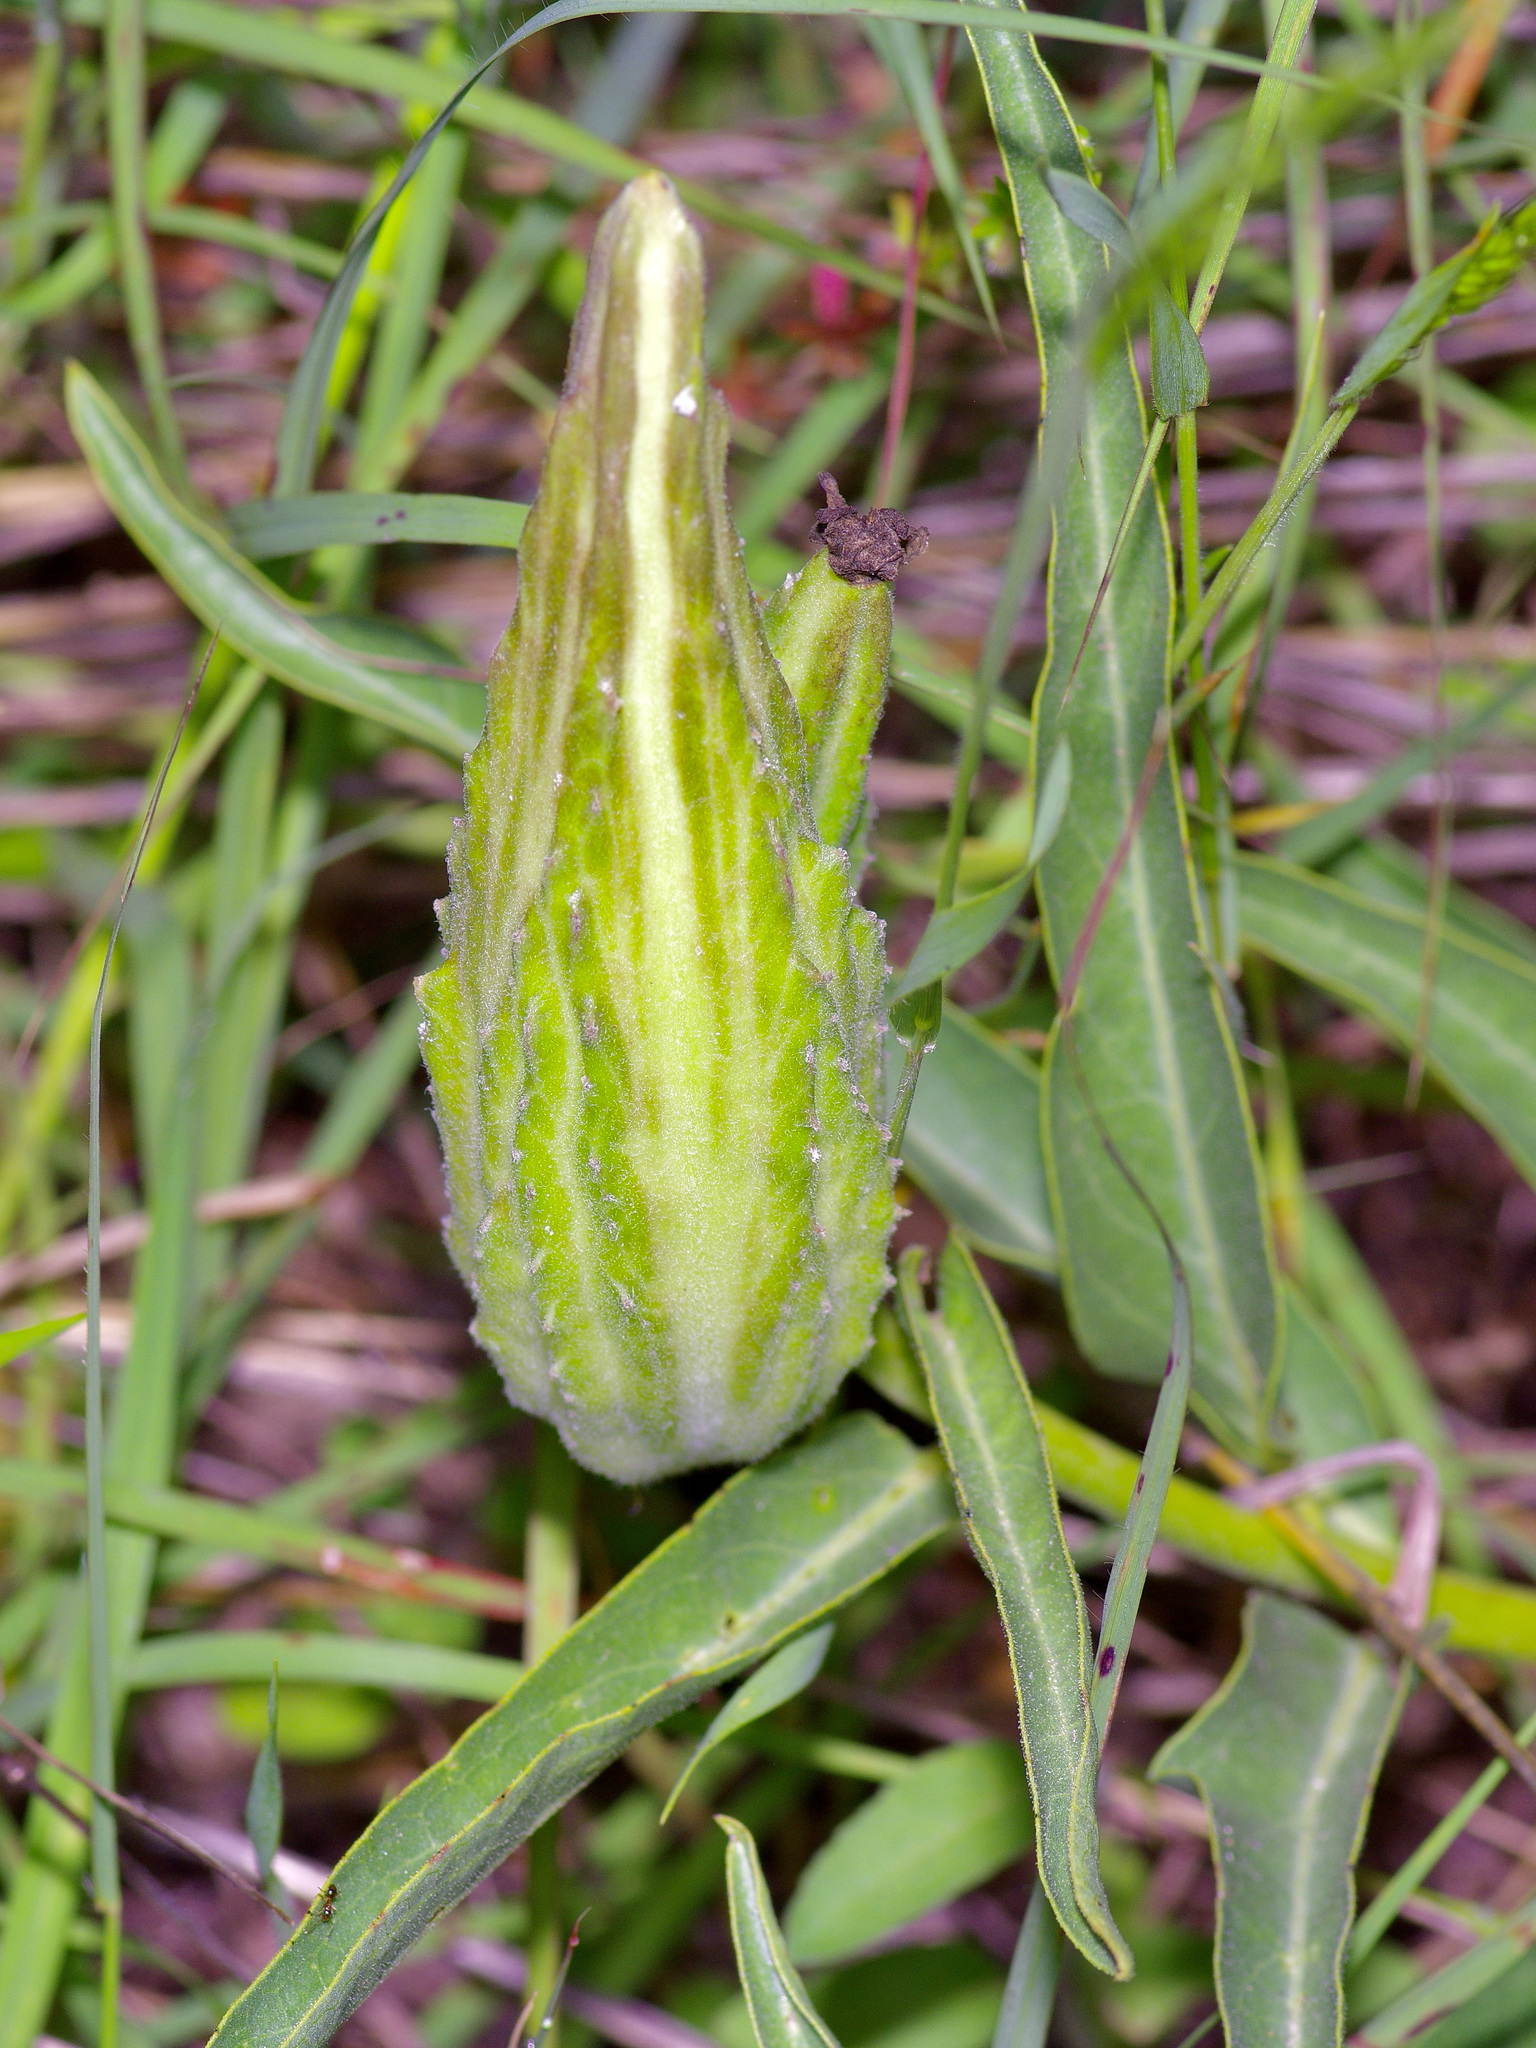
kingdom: Plantae
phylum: Tracheophyta
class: Magnoliopsida
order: Gentianales
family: Apocynaceae
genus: Asclepias
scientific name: Asclepias asperula
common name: Antelope horns
